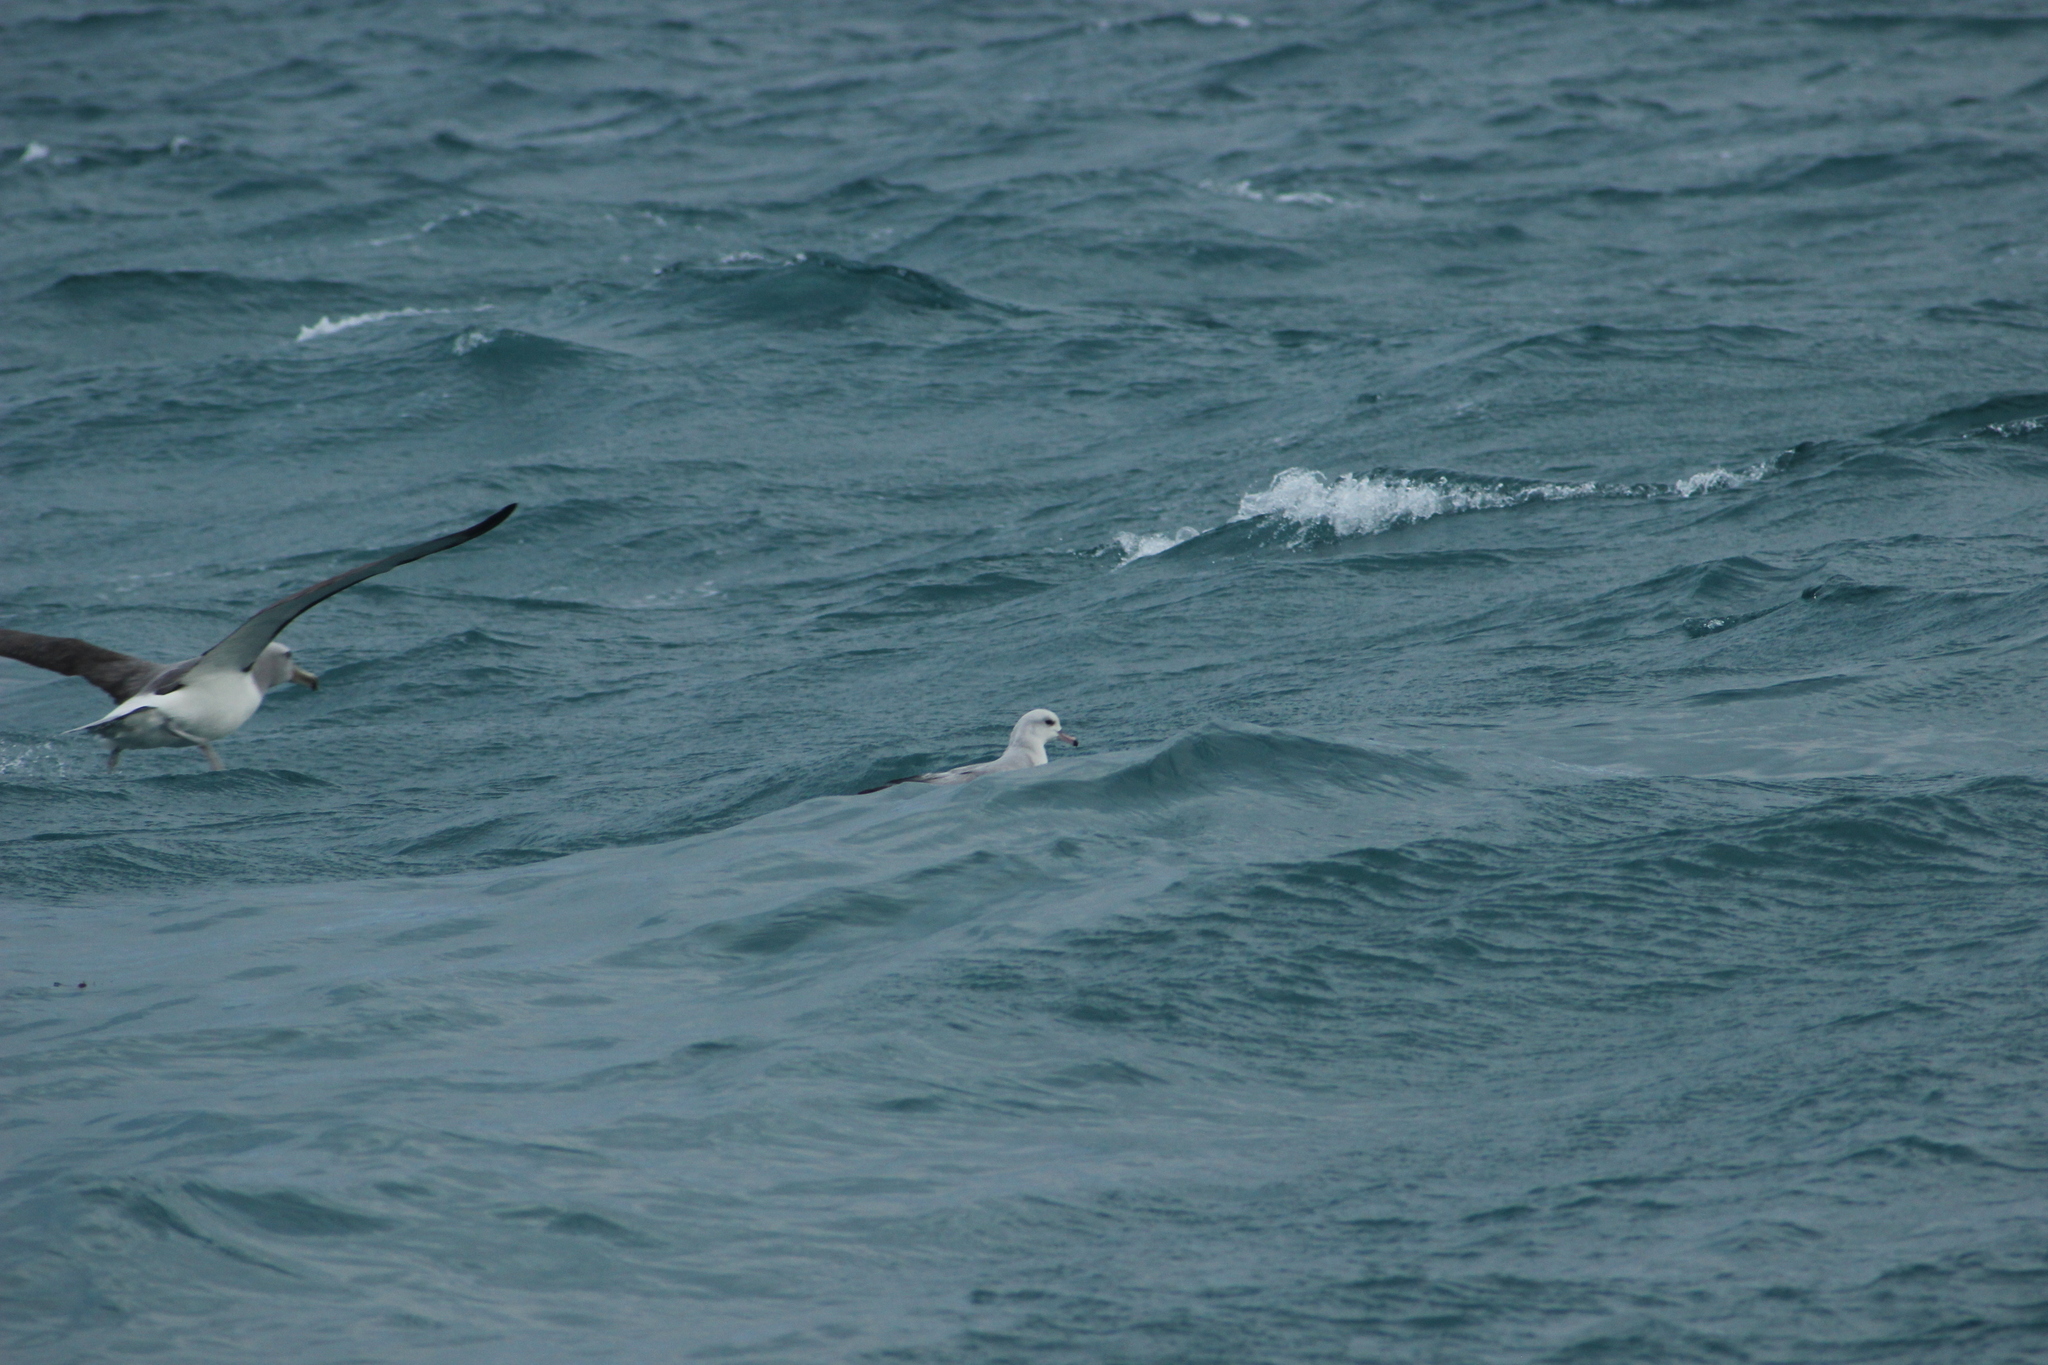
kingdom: Animalia
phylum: Chordata
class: Aves
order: Procellariiformes
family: Procellariidae
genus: Fulmarus
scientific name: Fulmarus glacialoides
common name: Southern fulmar
